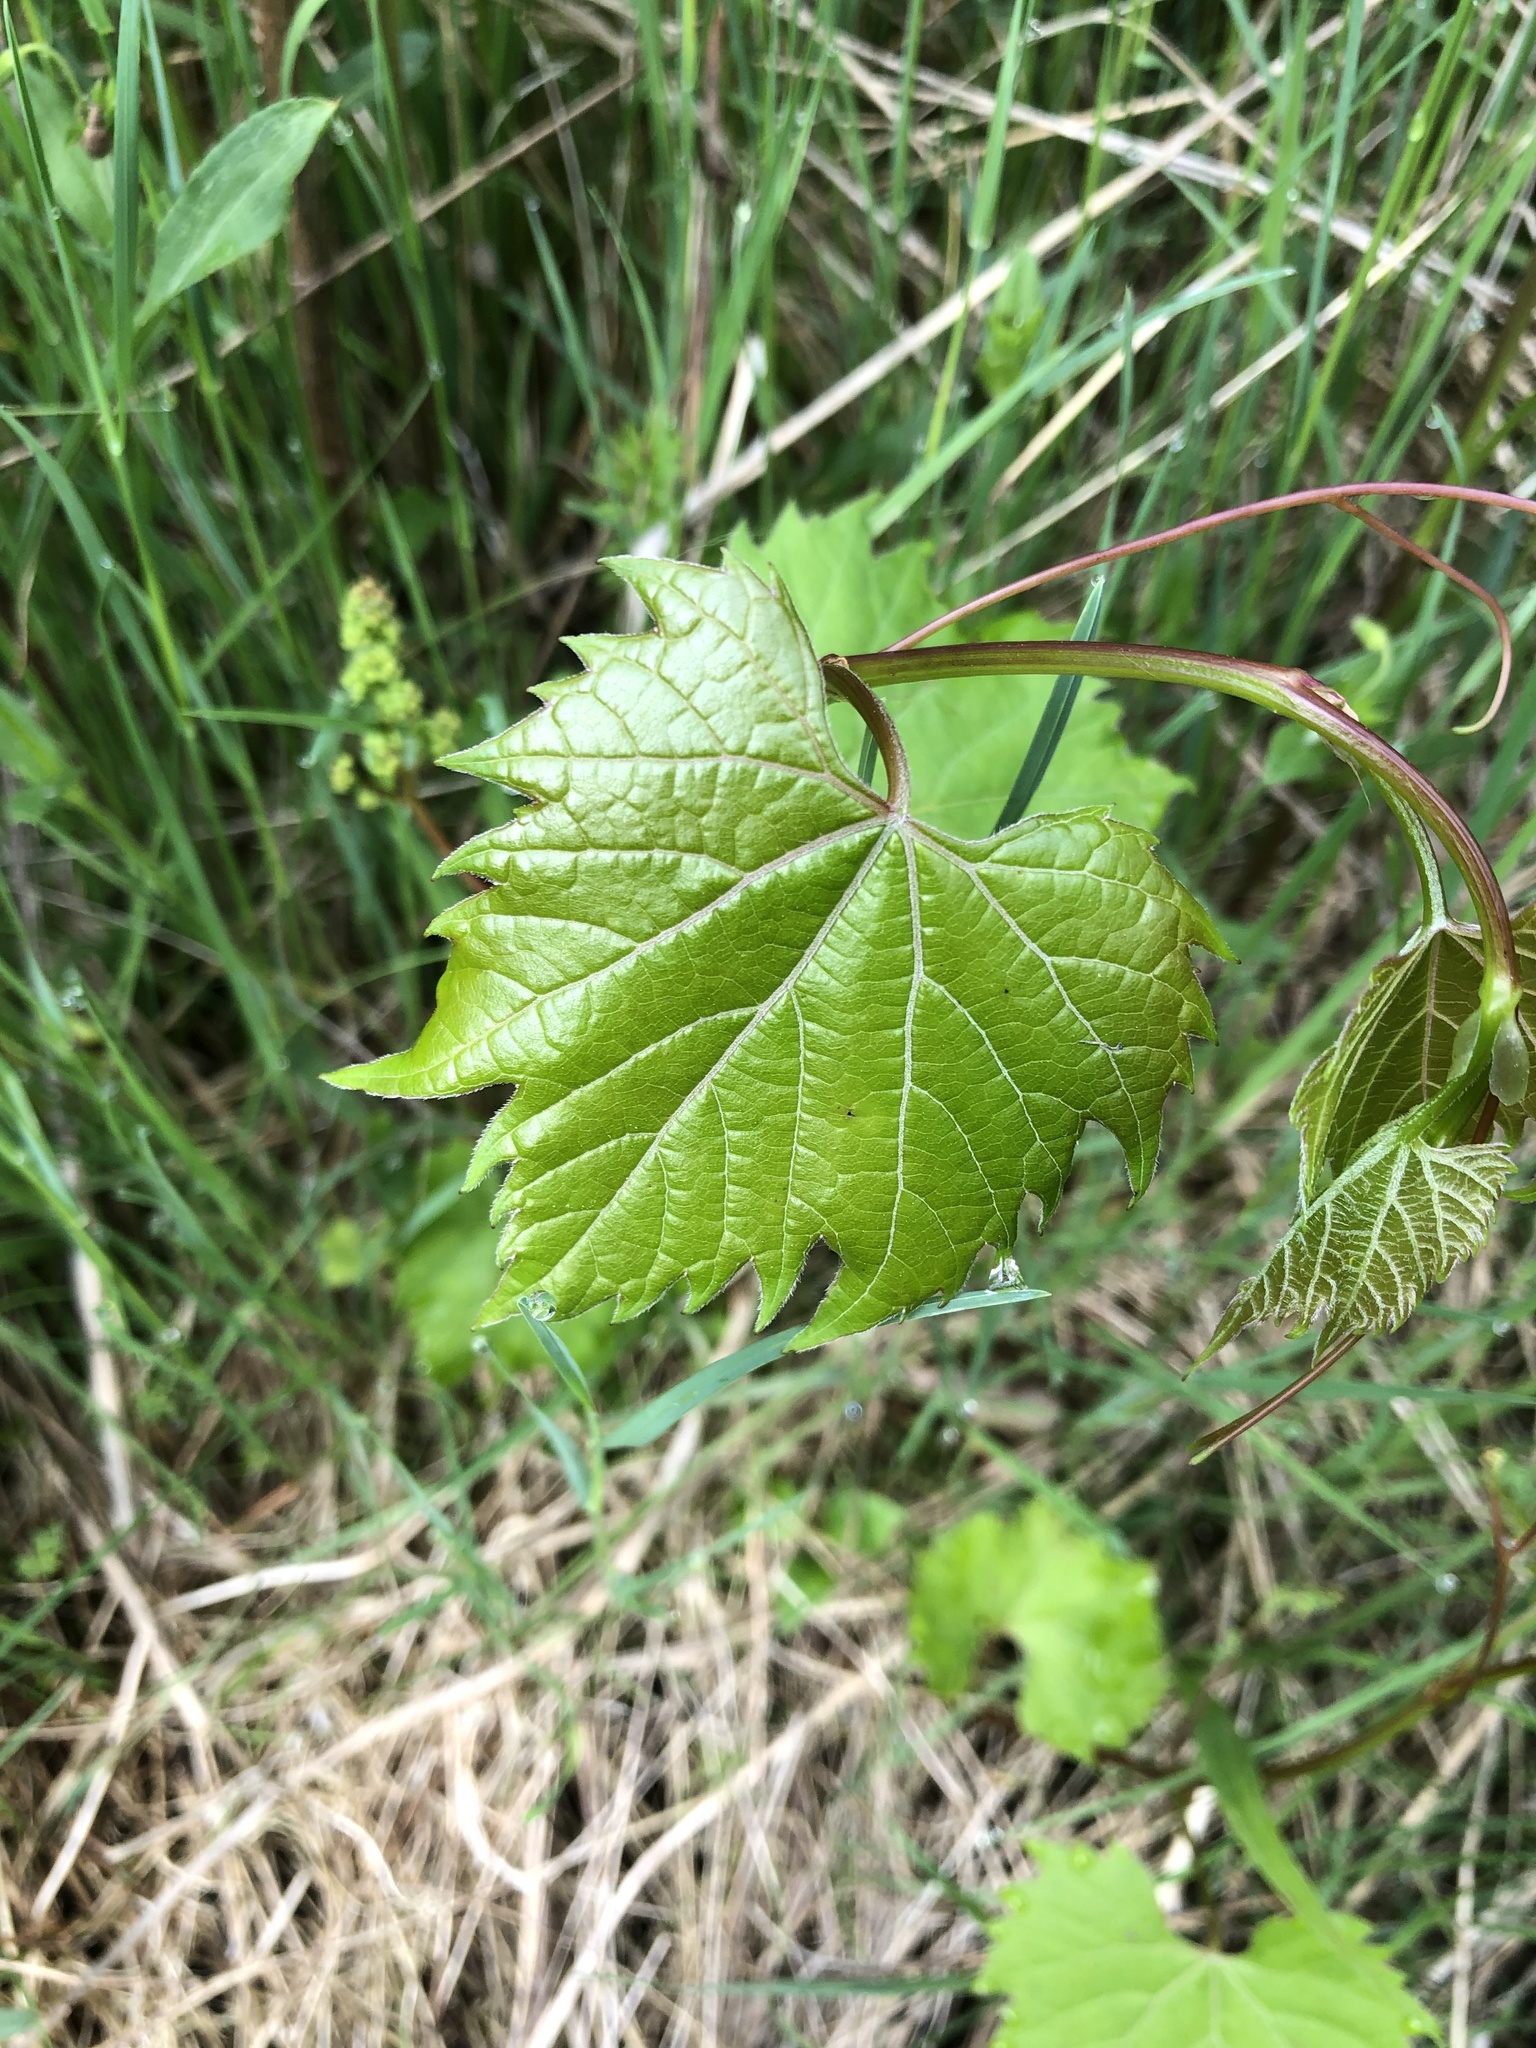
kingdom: Plantae
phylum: Tracheophyta
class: Magnoliopsida
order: Vitales
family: Vitaceae
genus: Vitis
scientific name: Vitis riparia
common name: Frost grape
